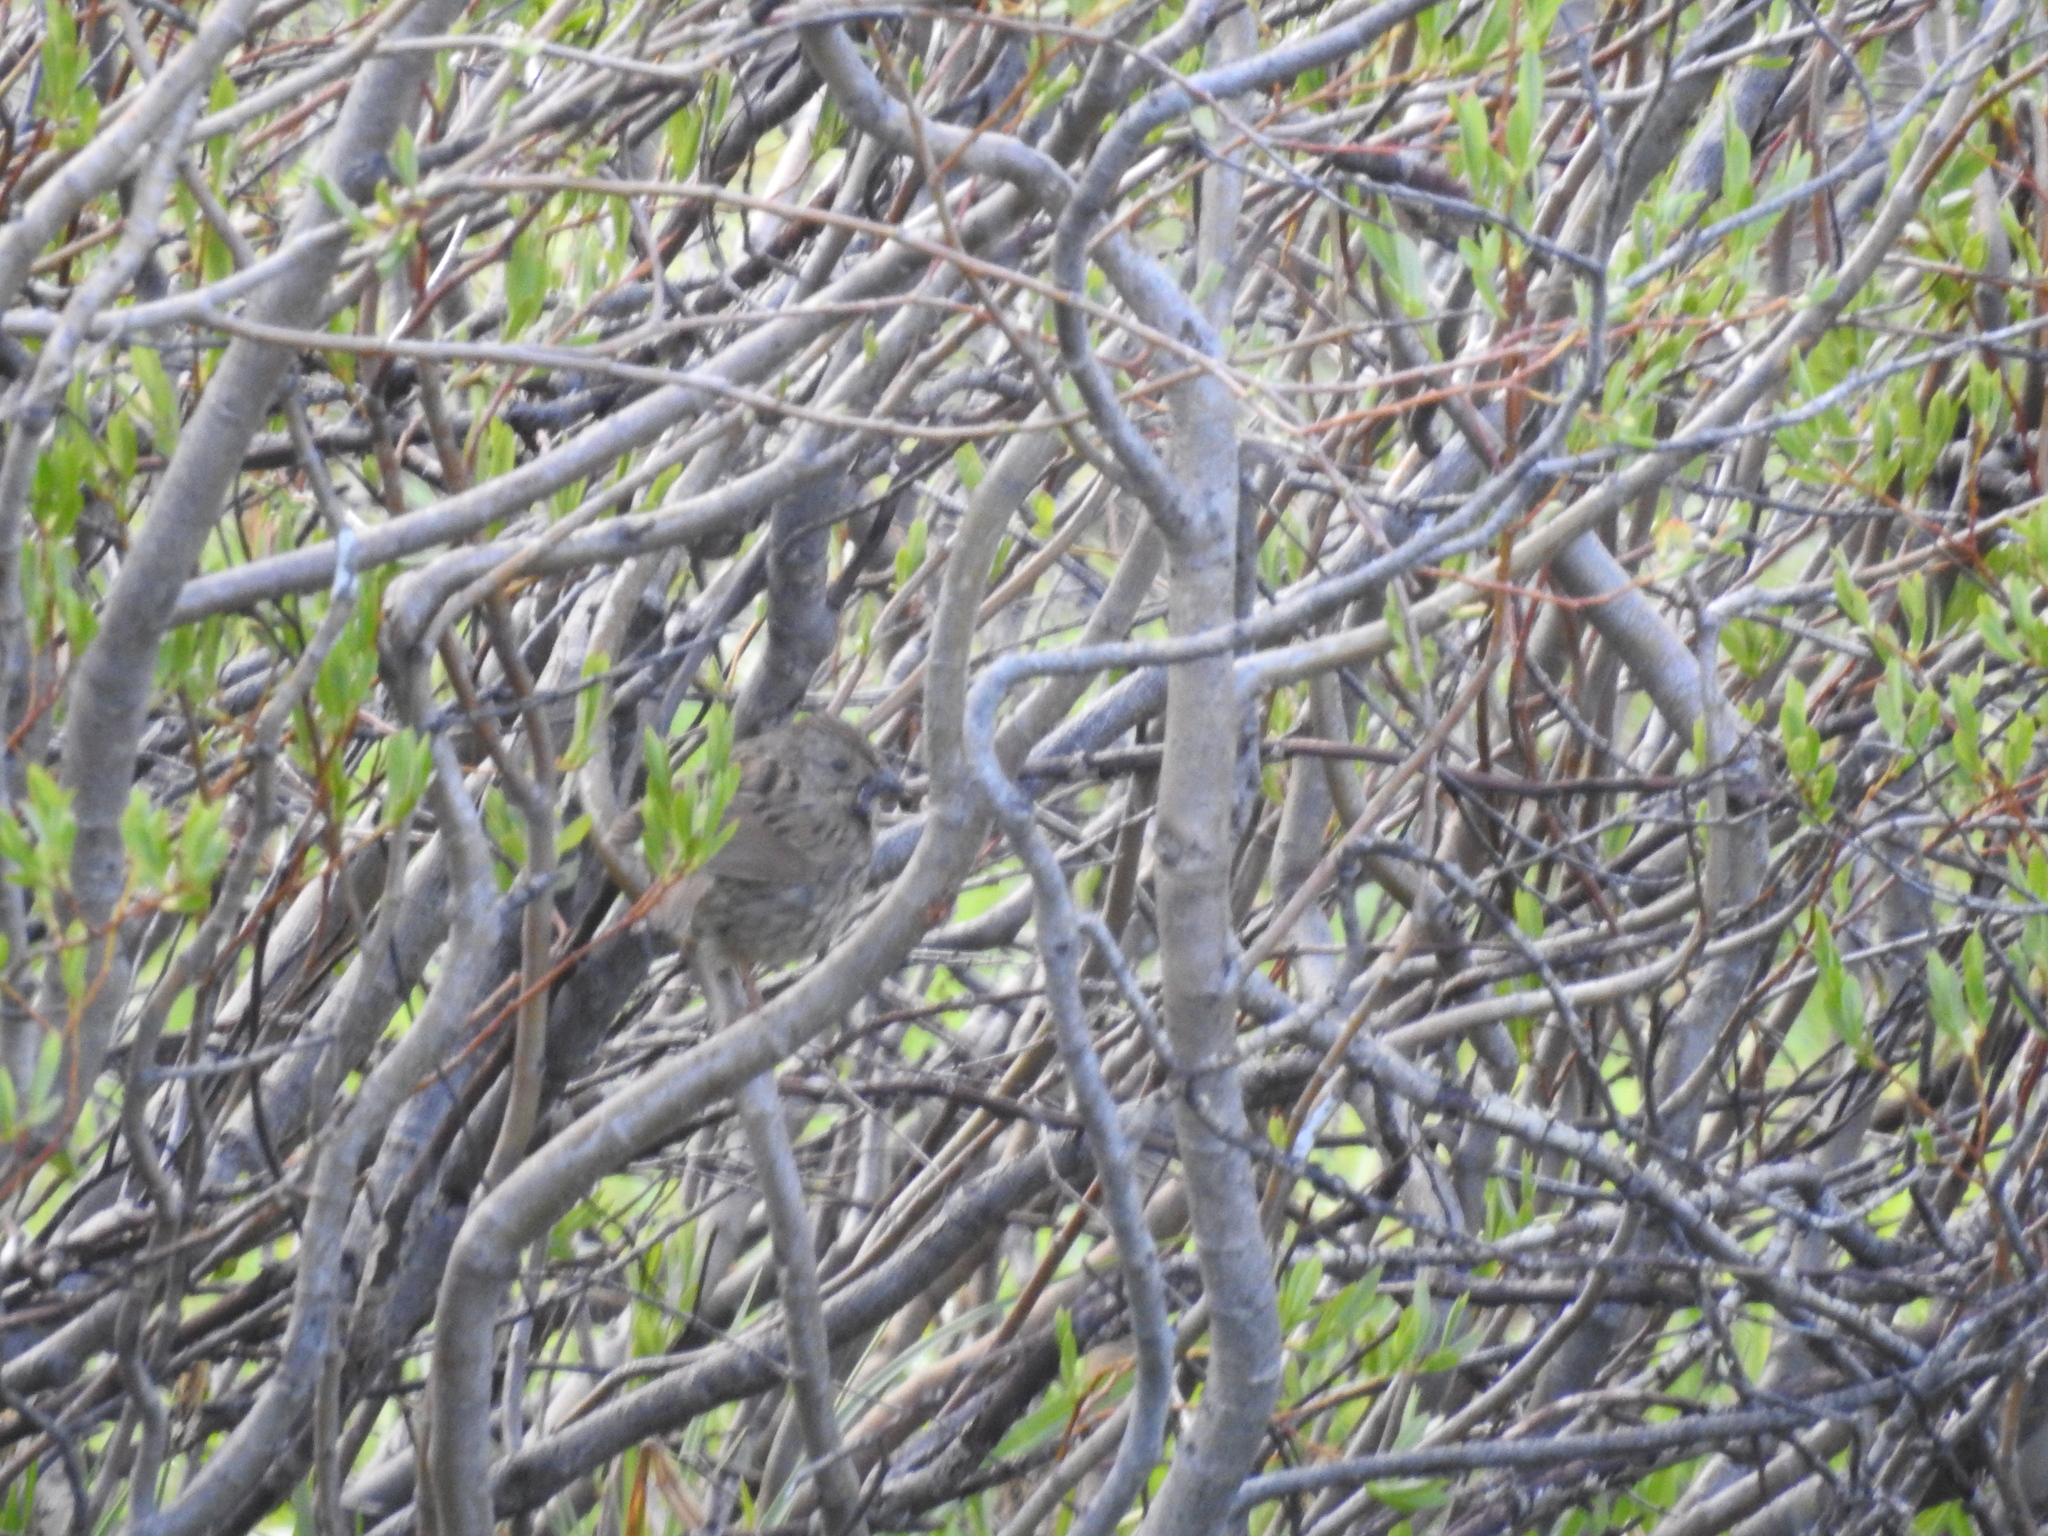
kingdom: Animalia
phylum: Chordata
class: Aves
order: Passeriformes
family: Passerellidae
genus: Melospiza
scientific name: Melospiza lincolnii
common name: Lincoln's sparrow
